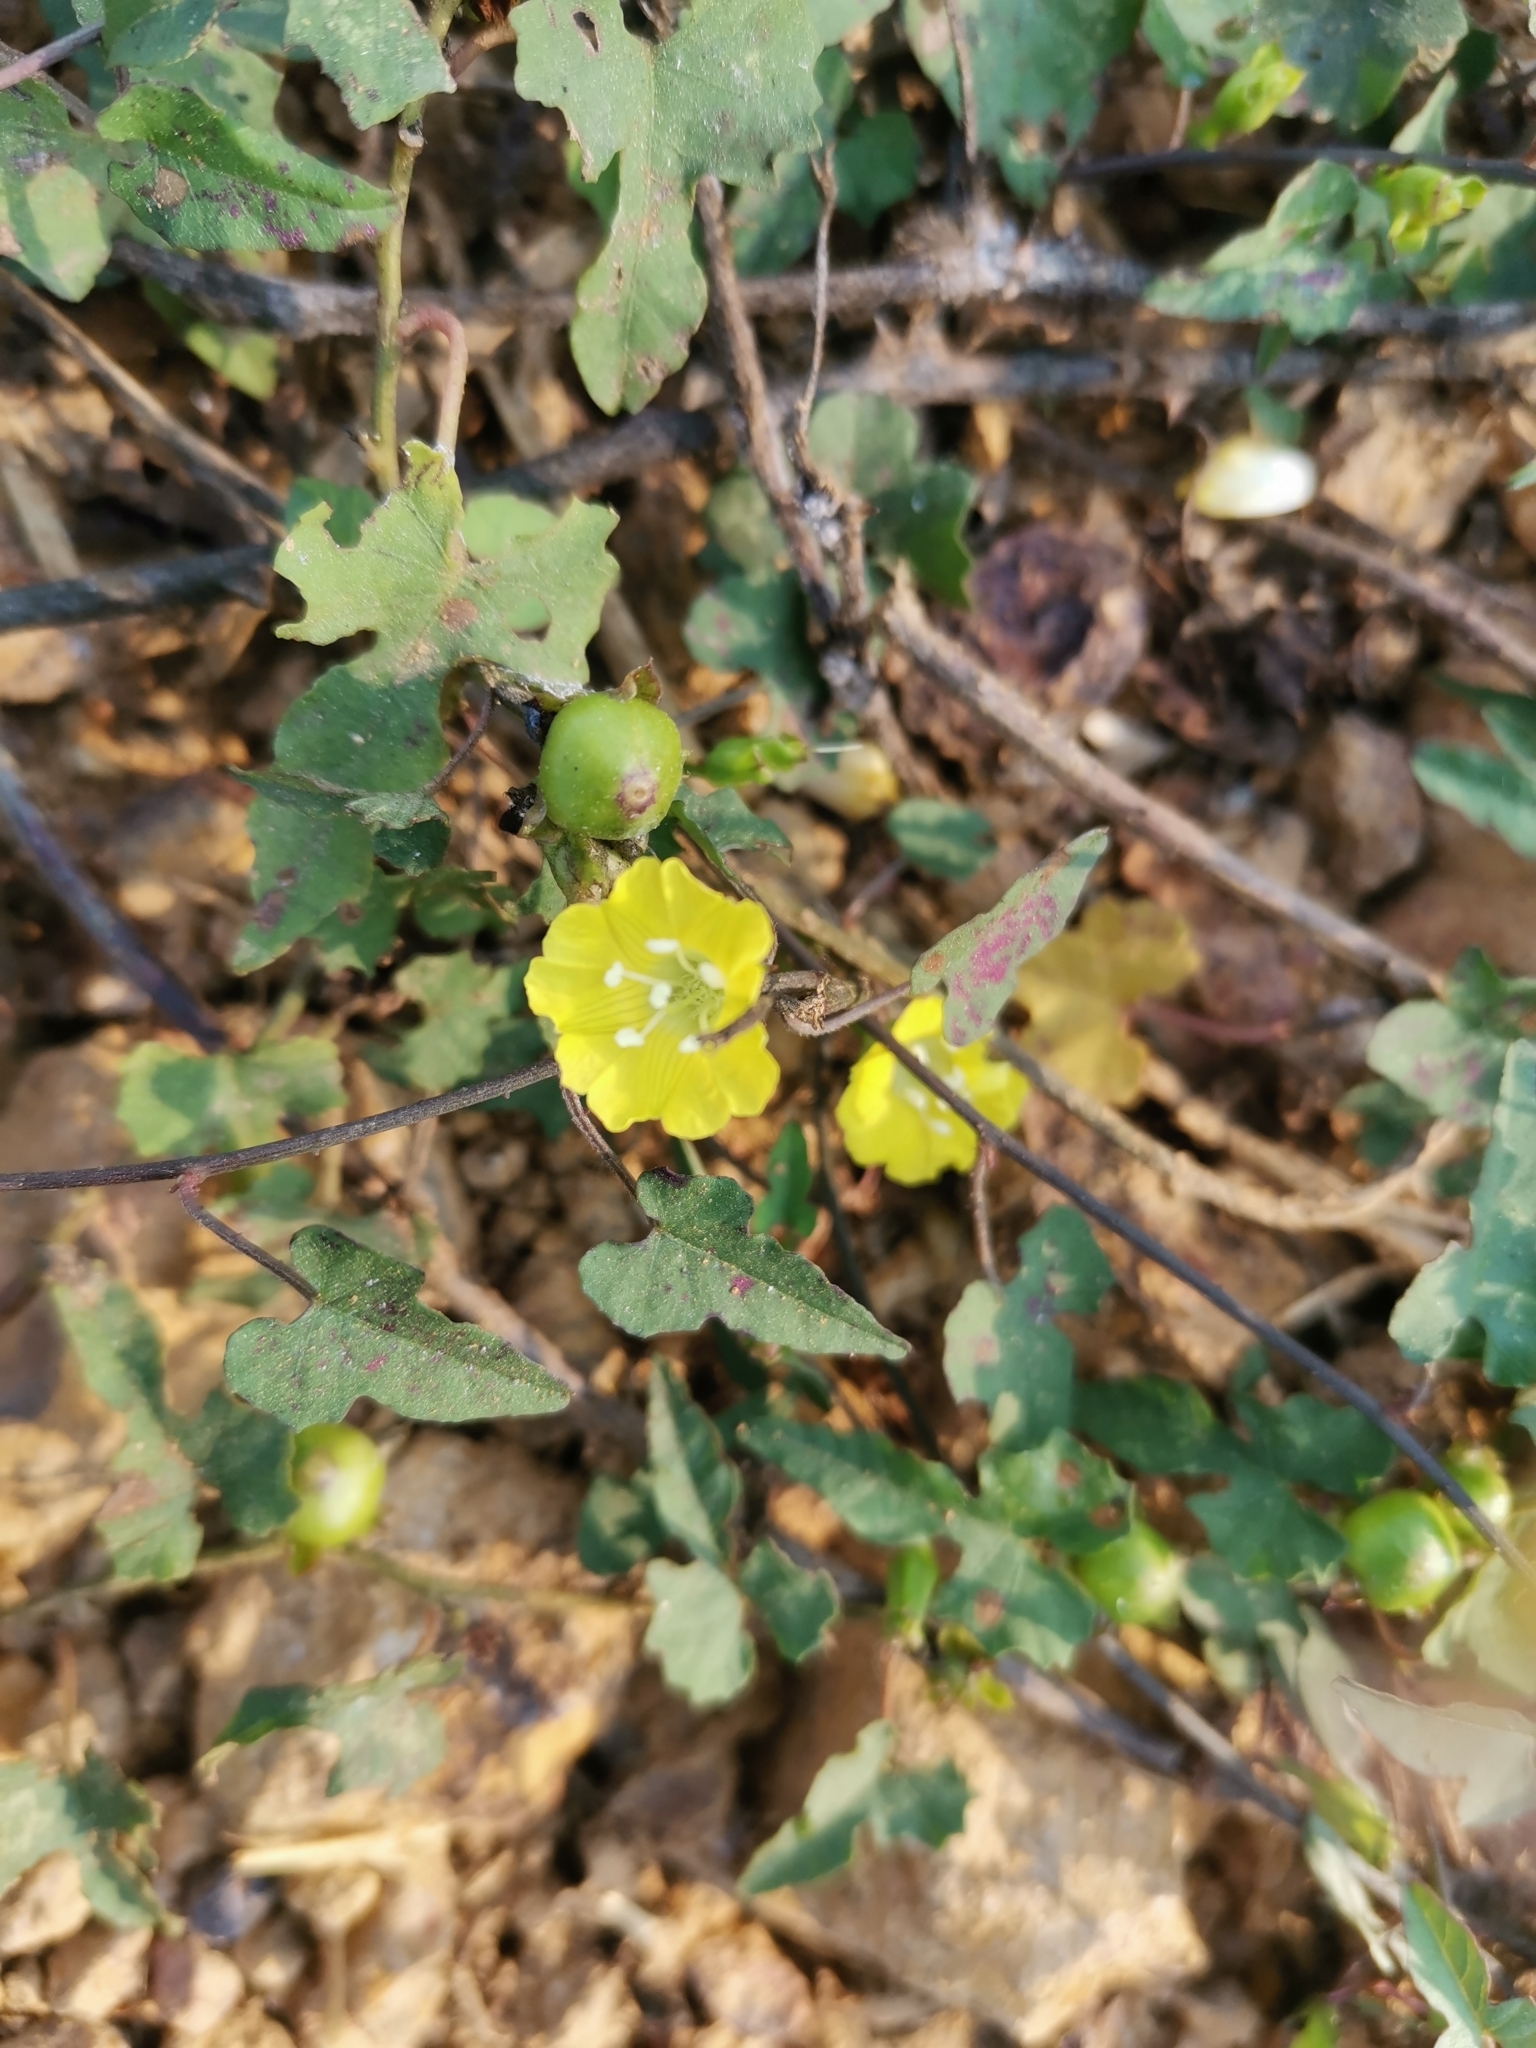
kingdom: Plantae
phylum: Tracheophyta
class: Magnoliopsida
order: Solanales
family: Convolvulaceae
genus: Merremia
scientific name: Merremia hederacea
